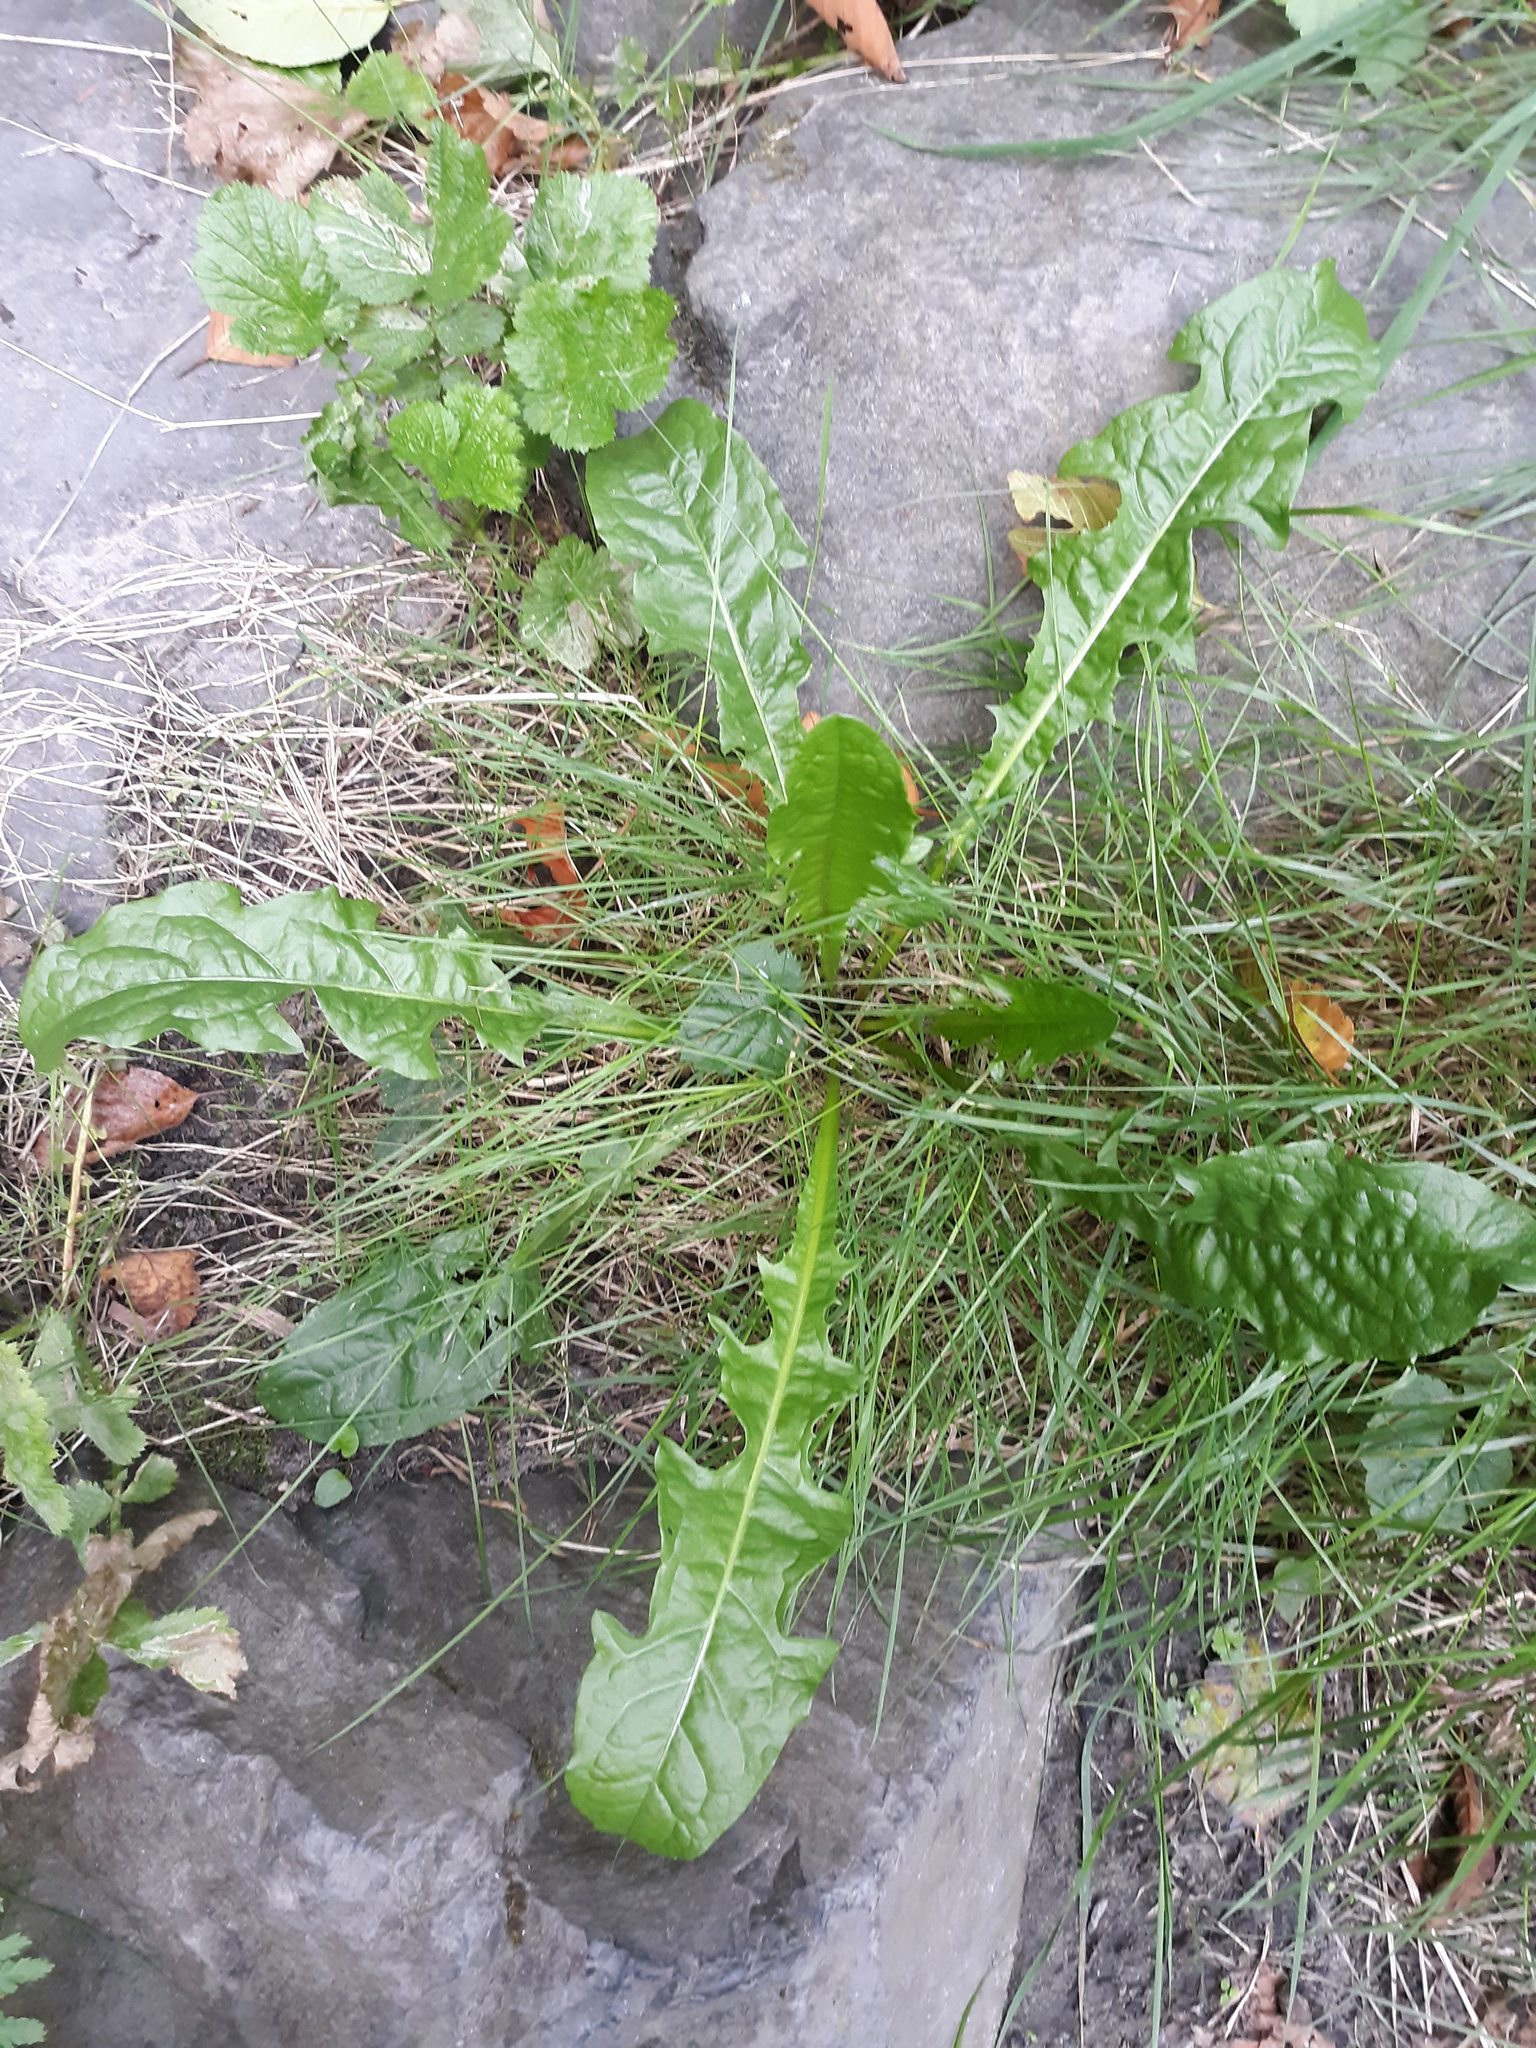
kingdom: Plantae
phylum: Tracheophyta
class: Magnoliopsida
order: Asterales
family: Asteraceae
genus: Taraxacum
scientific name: Taraxacum officinale
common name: Common dandelion
